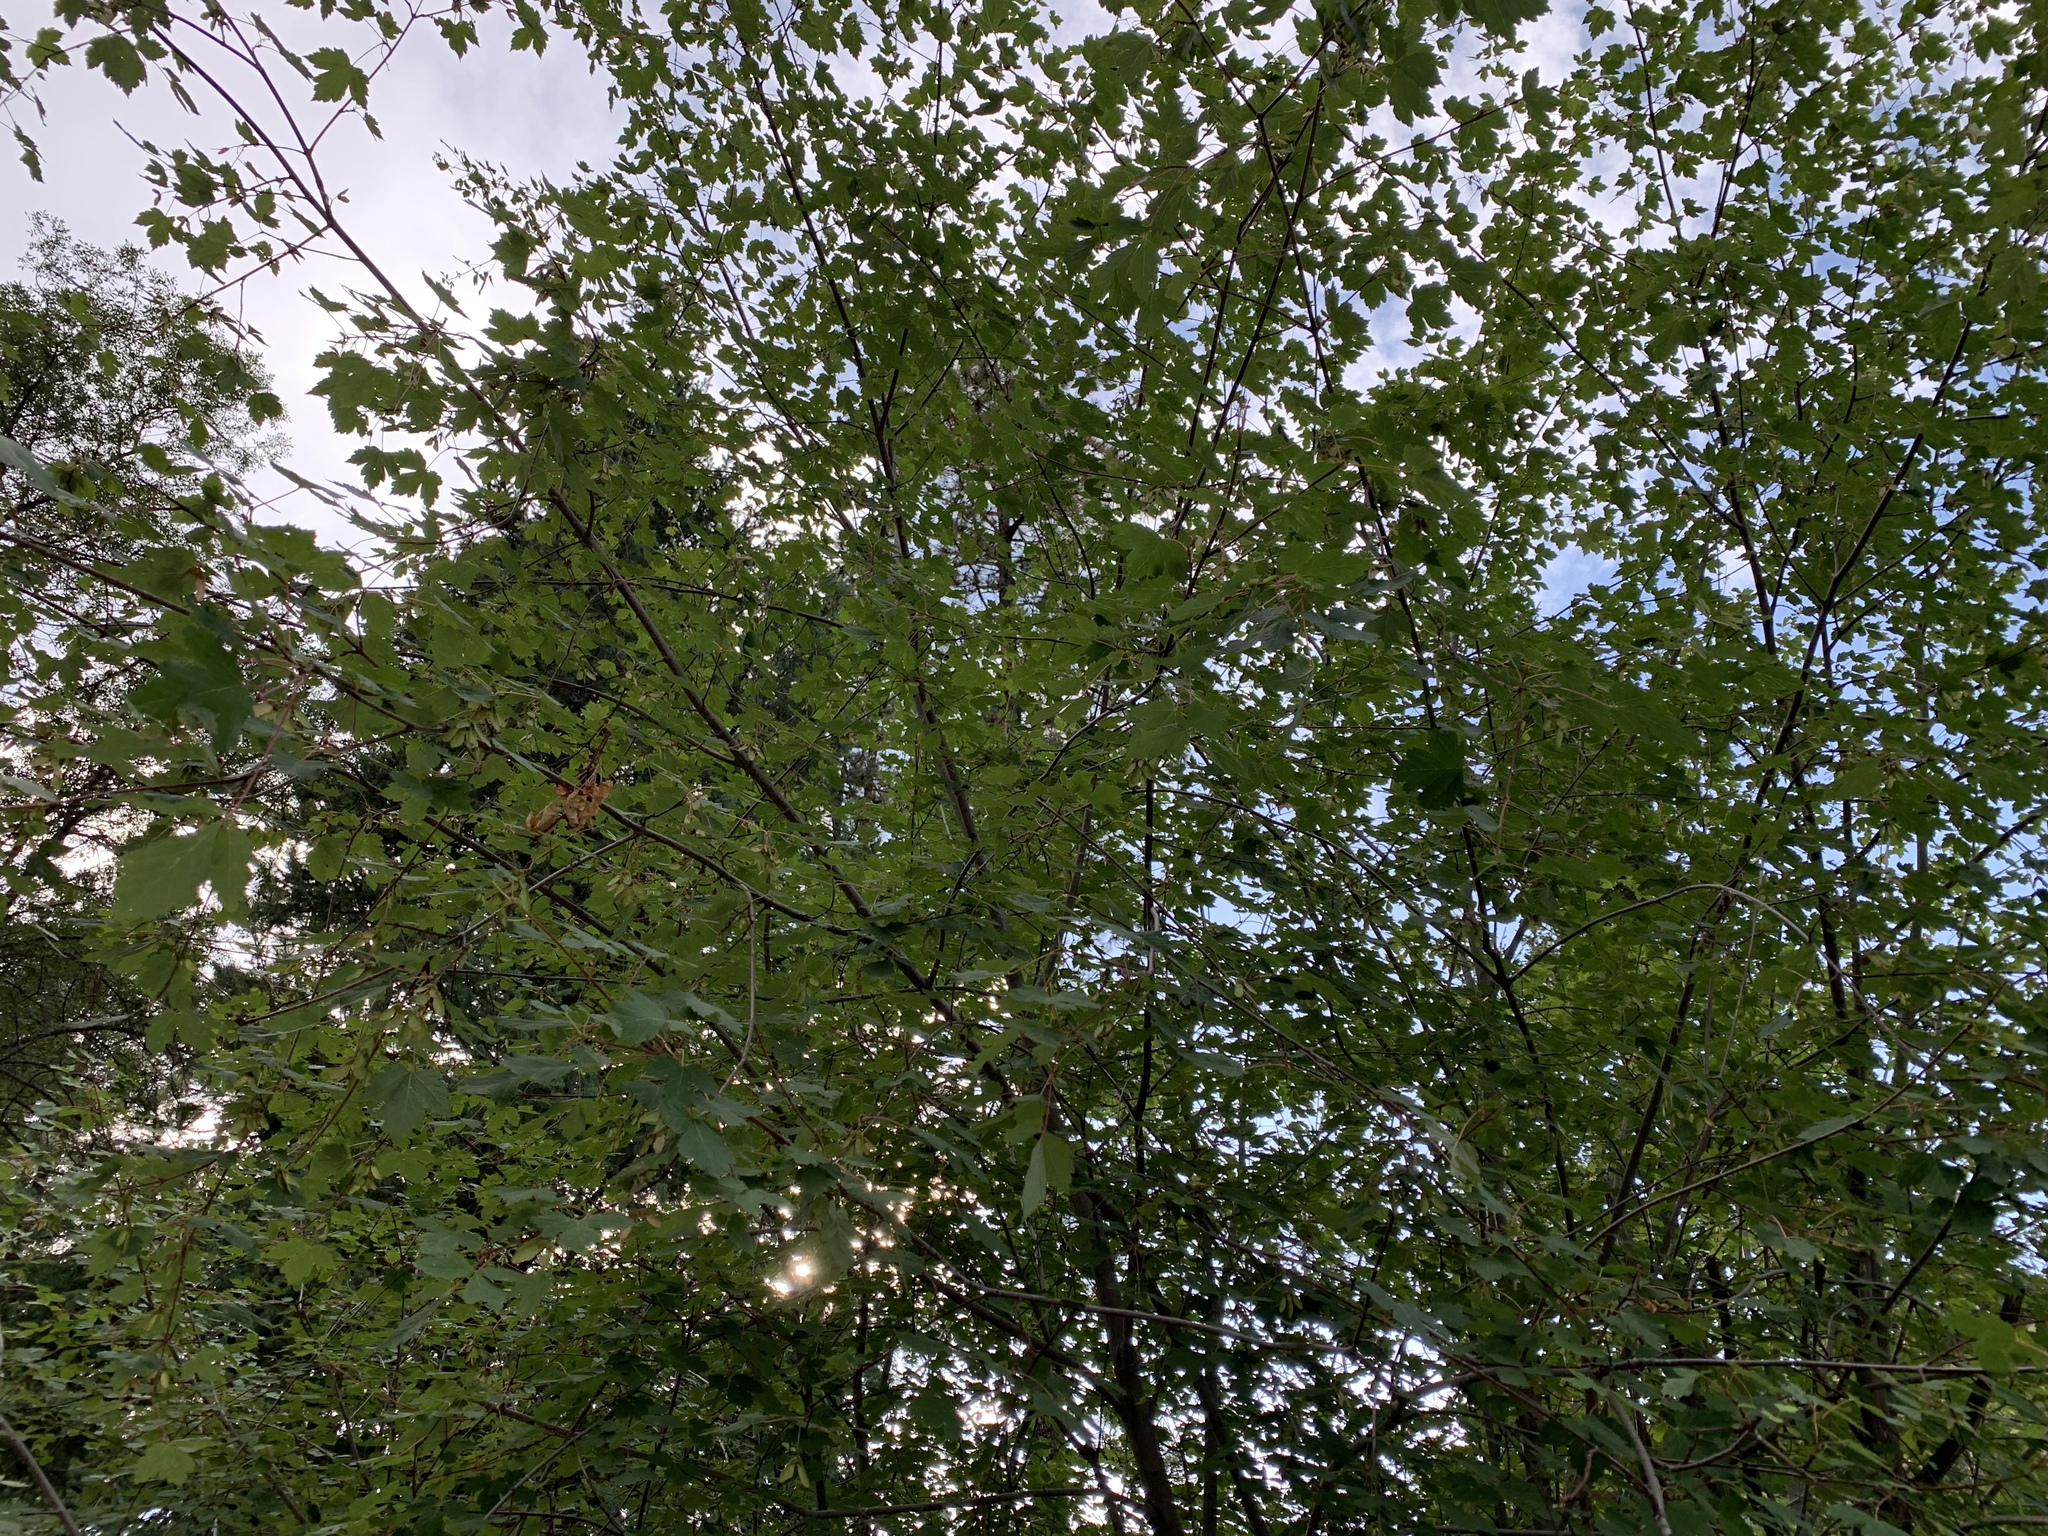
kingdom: Plantae
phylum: Tracheophyta
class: Magnoliopsida
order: Sapindales
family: Sapindaceae
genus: Acer
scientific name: Acer glabrum
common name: Rocky mountain maple
